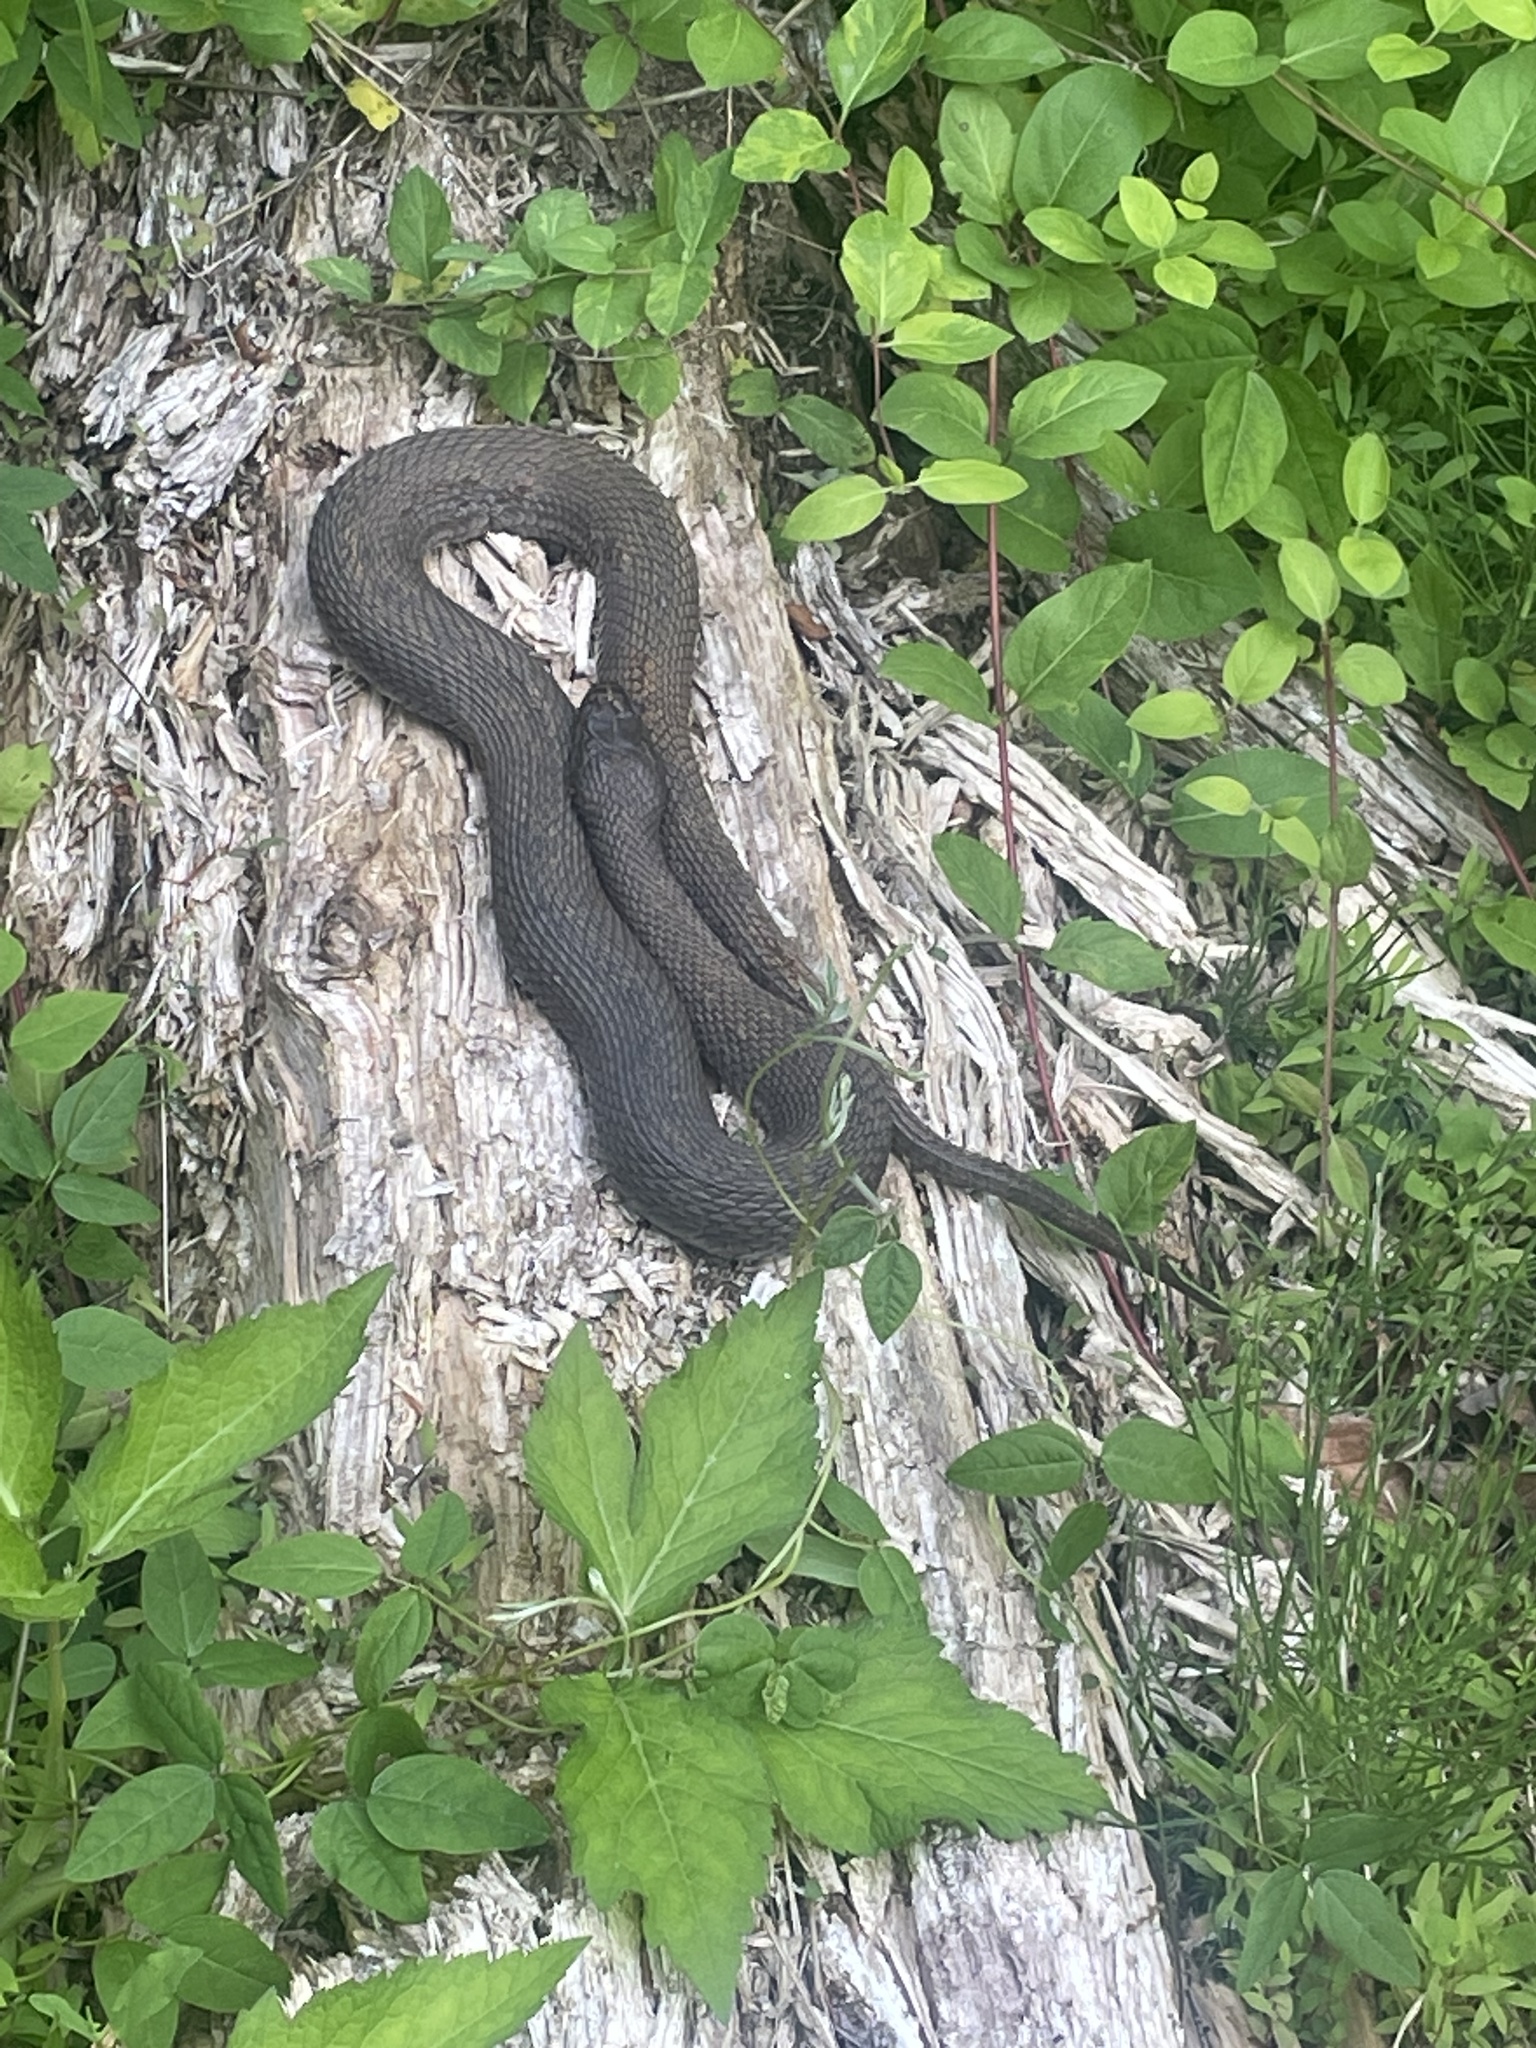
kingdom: Animalia
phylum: Chordata
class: Squamata
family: Colubridae
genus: Nerodia
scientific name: Nerodia sipedon
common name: Northern water snake
